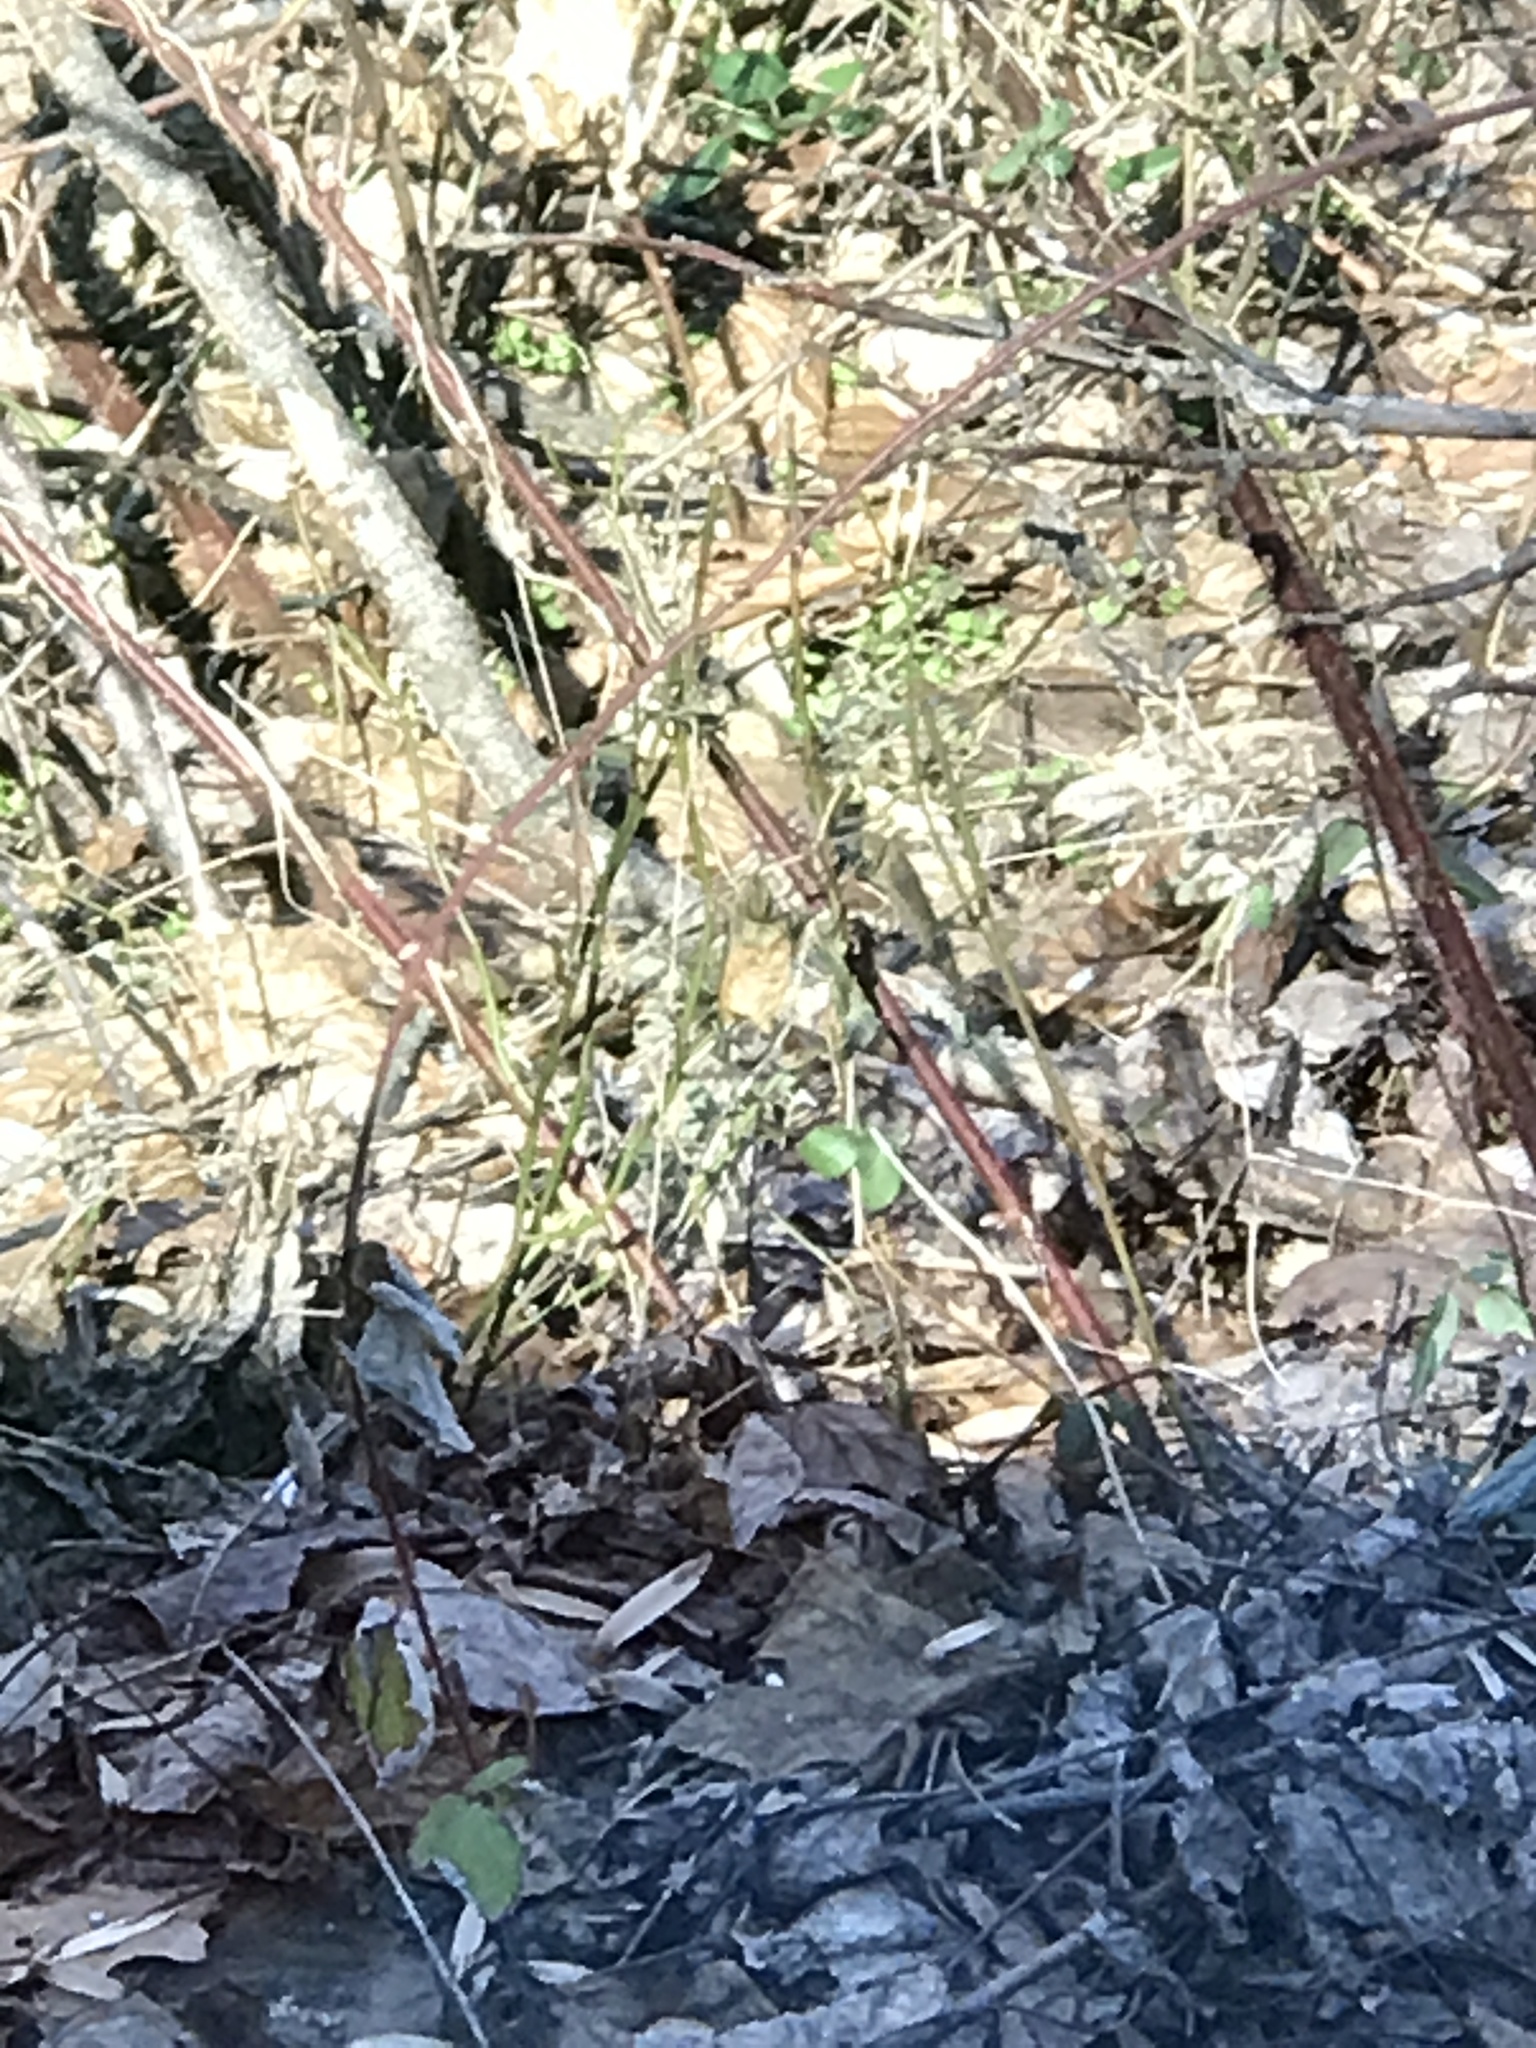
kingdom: Plantae
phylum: Tracheophyta
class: Magnoliopsida
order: Rosales
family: Rosaceae
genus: Rubus
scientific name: Rubus phoenicolasius
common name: Japanese wineberry
